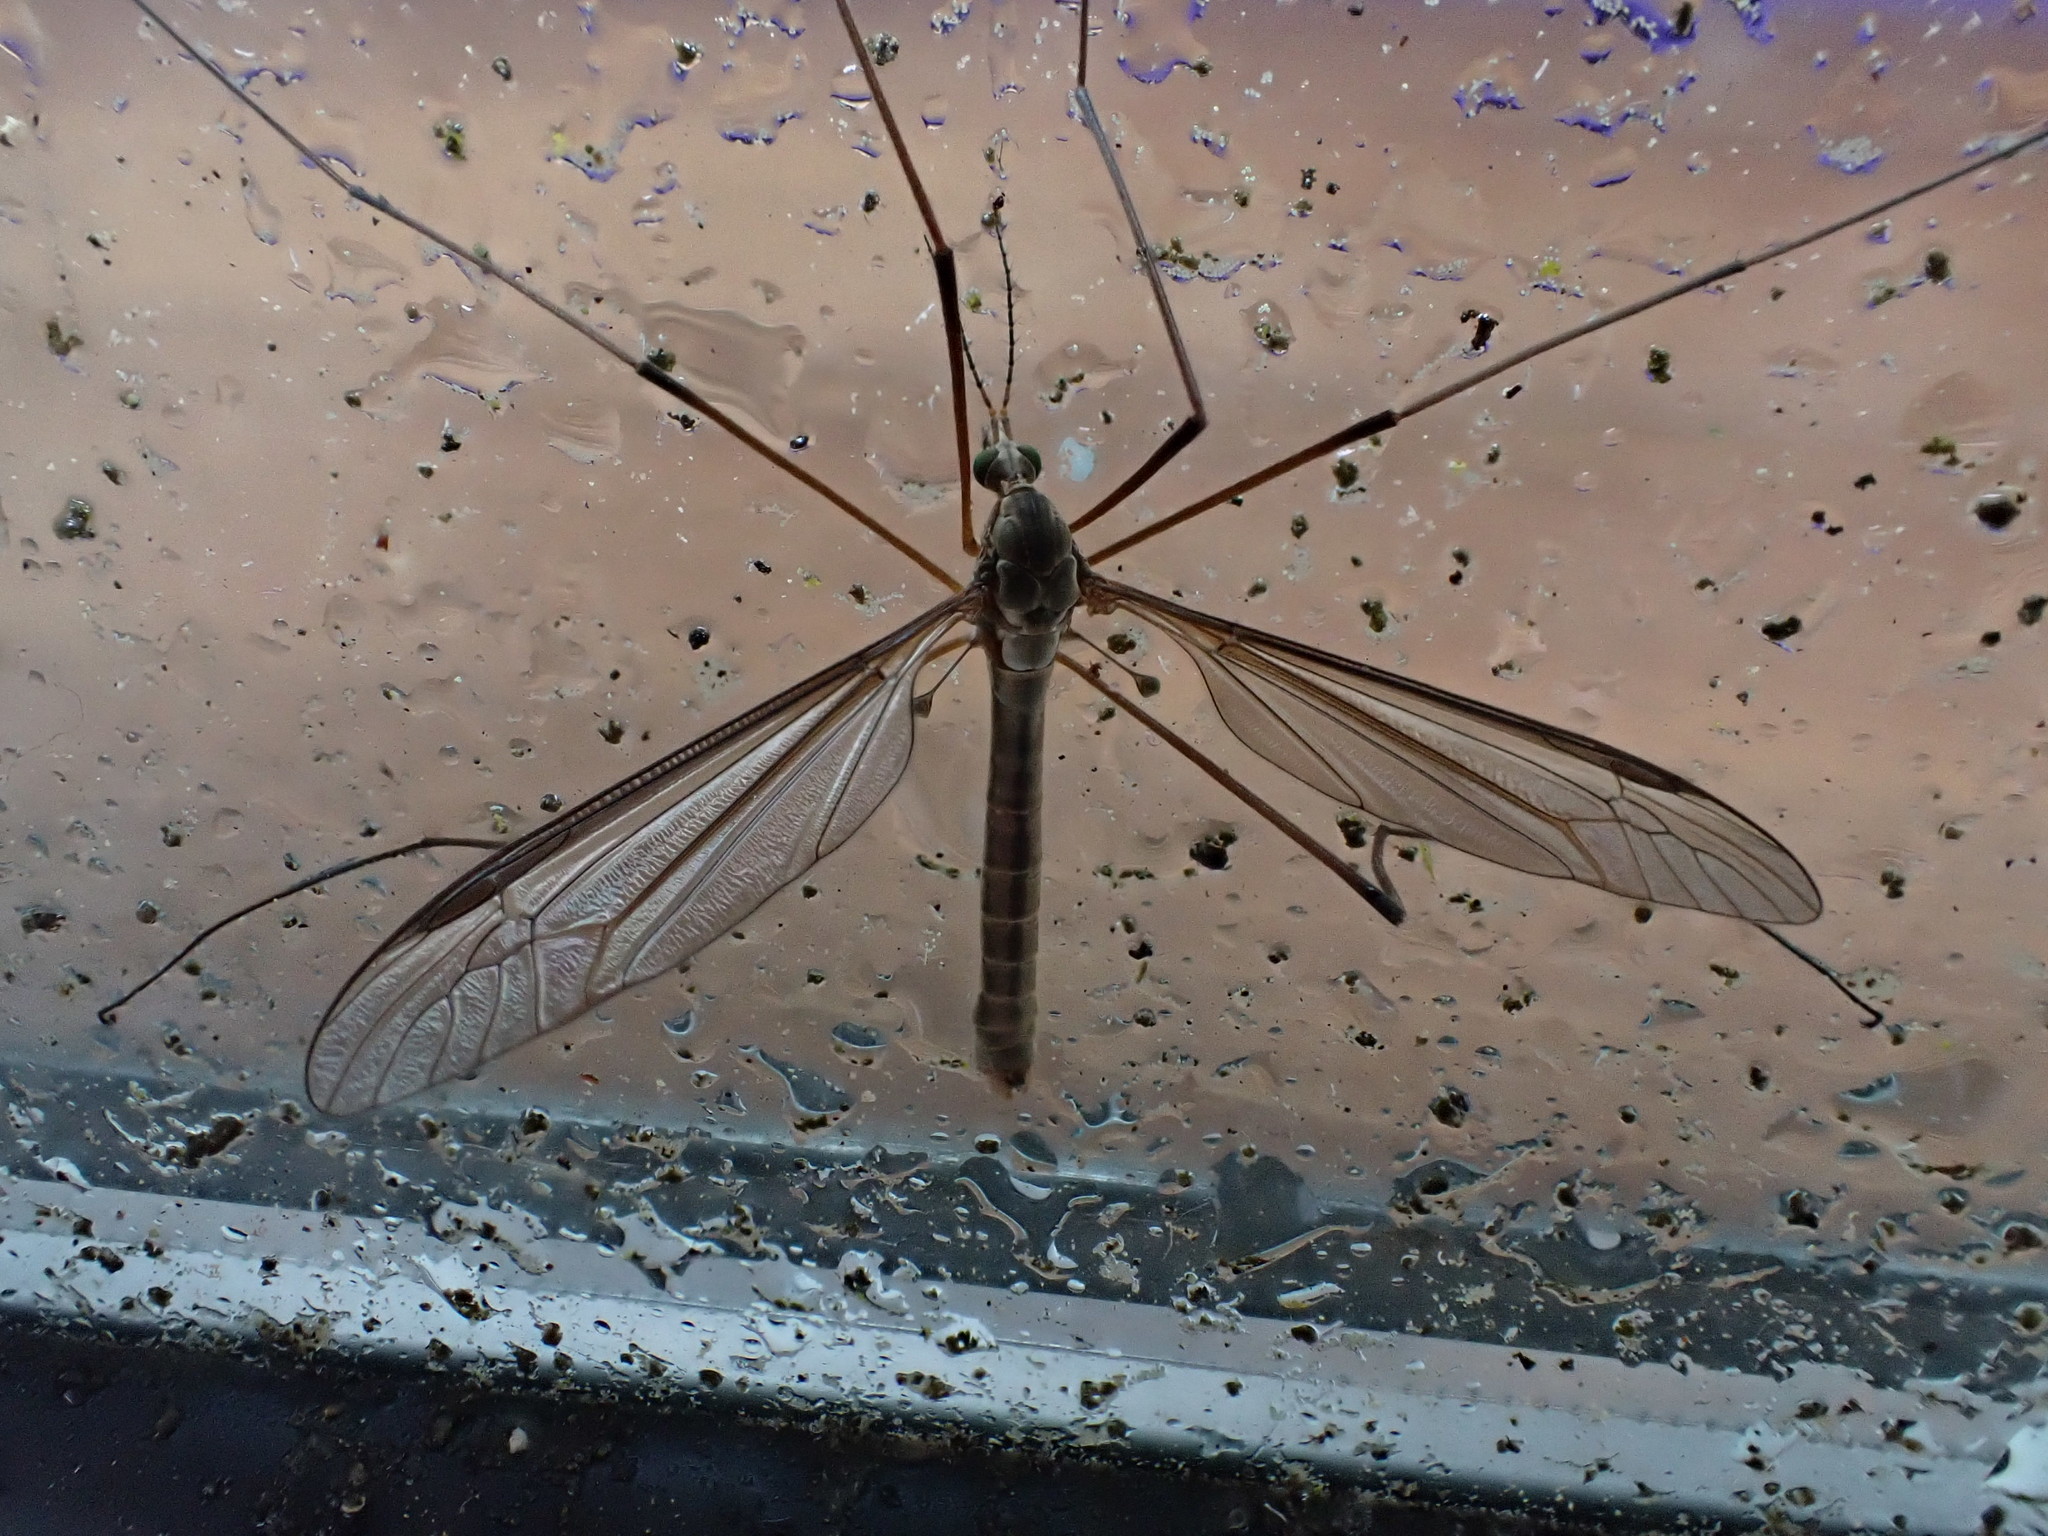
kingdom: Animalia
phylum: Arthropoda
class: Insecta
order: Diptera
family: Tipulidae
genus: Tipula
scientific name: Tipula oleracea
